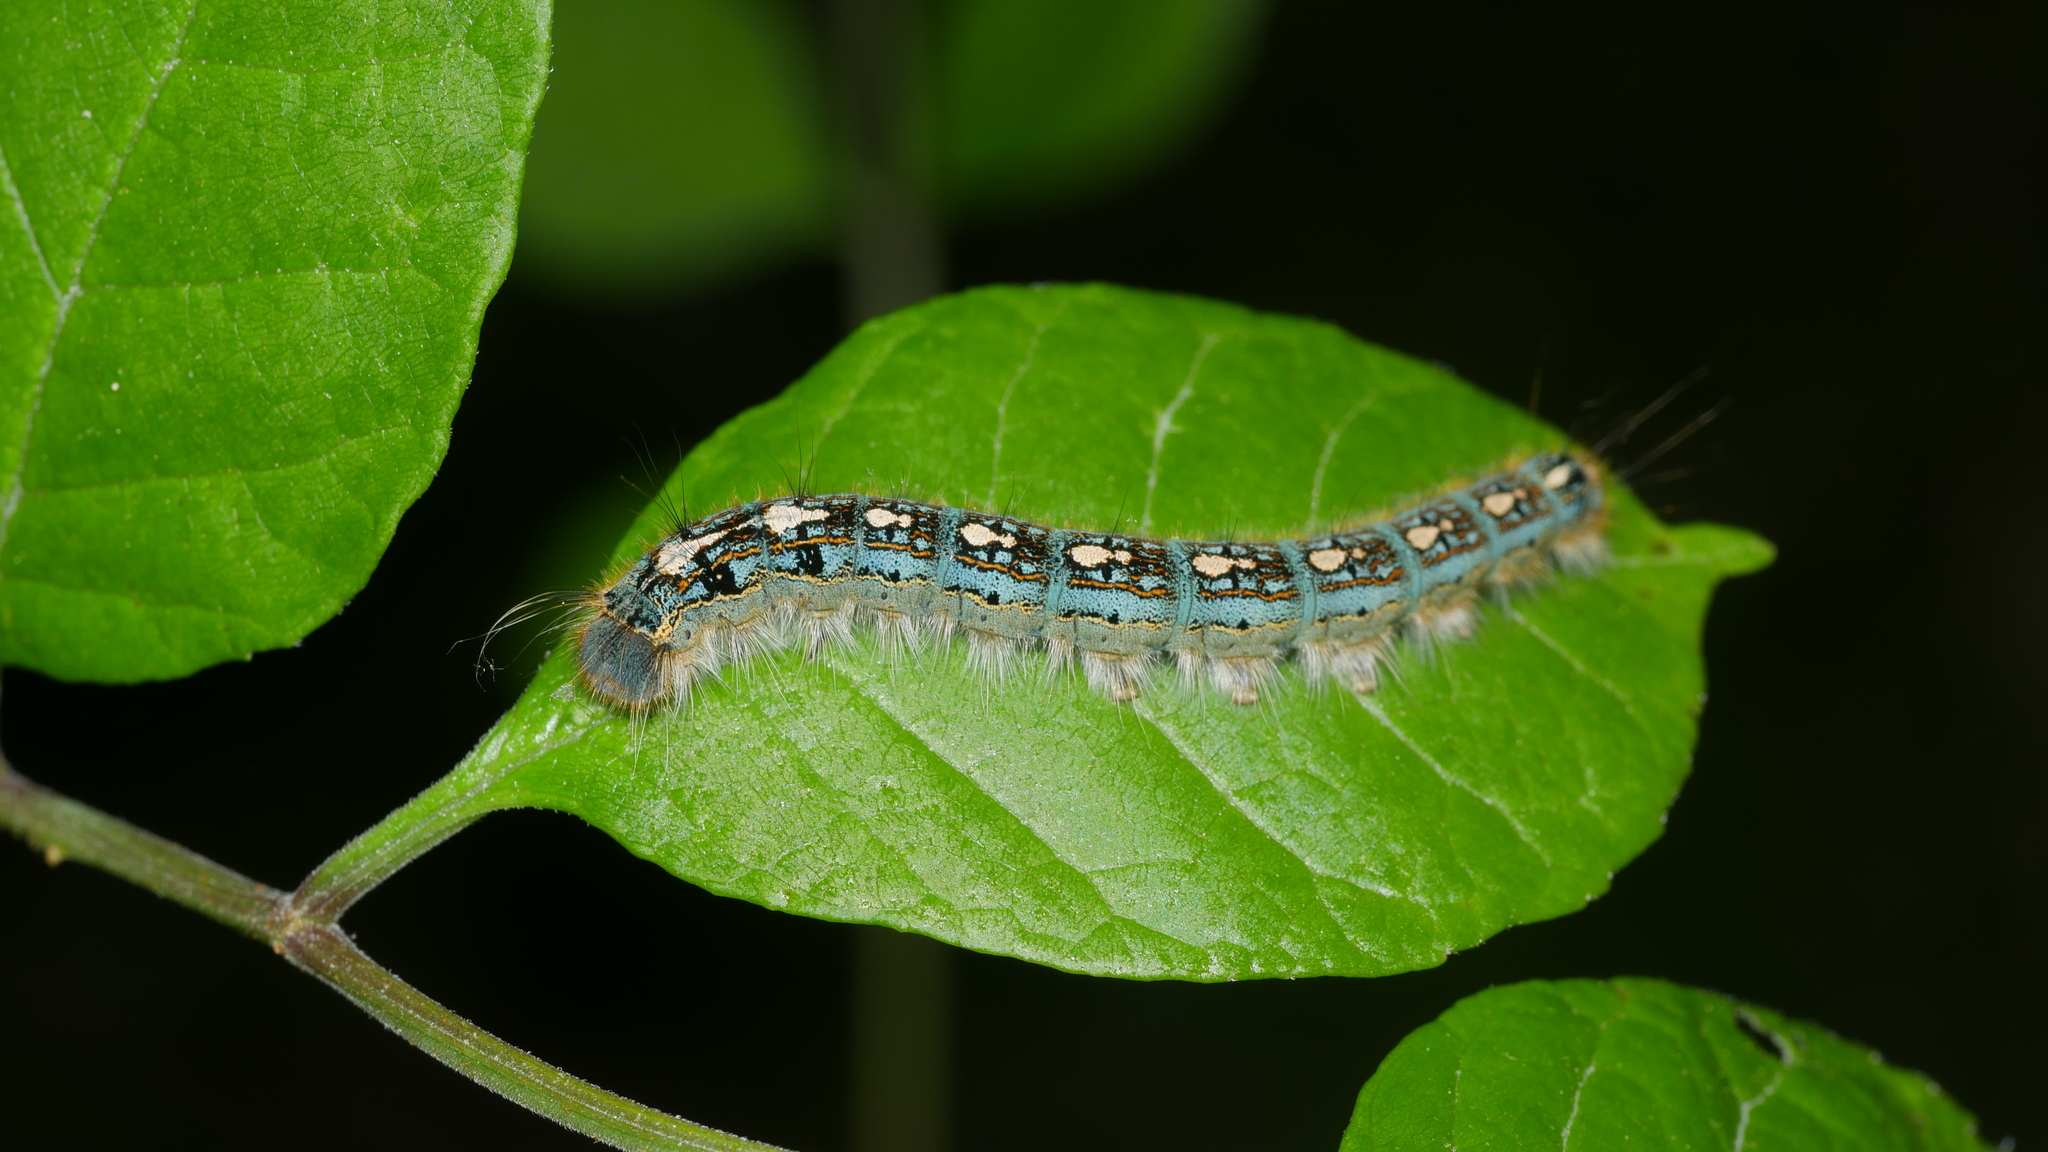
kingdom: Animalia
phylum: Arthropoda
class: Insecta
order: Lepidoptera
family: Lasiocampidae
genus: Malacosoma
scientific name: Malacosoma disstria
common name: Forest tent caterpillar
